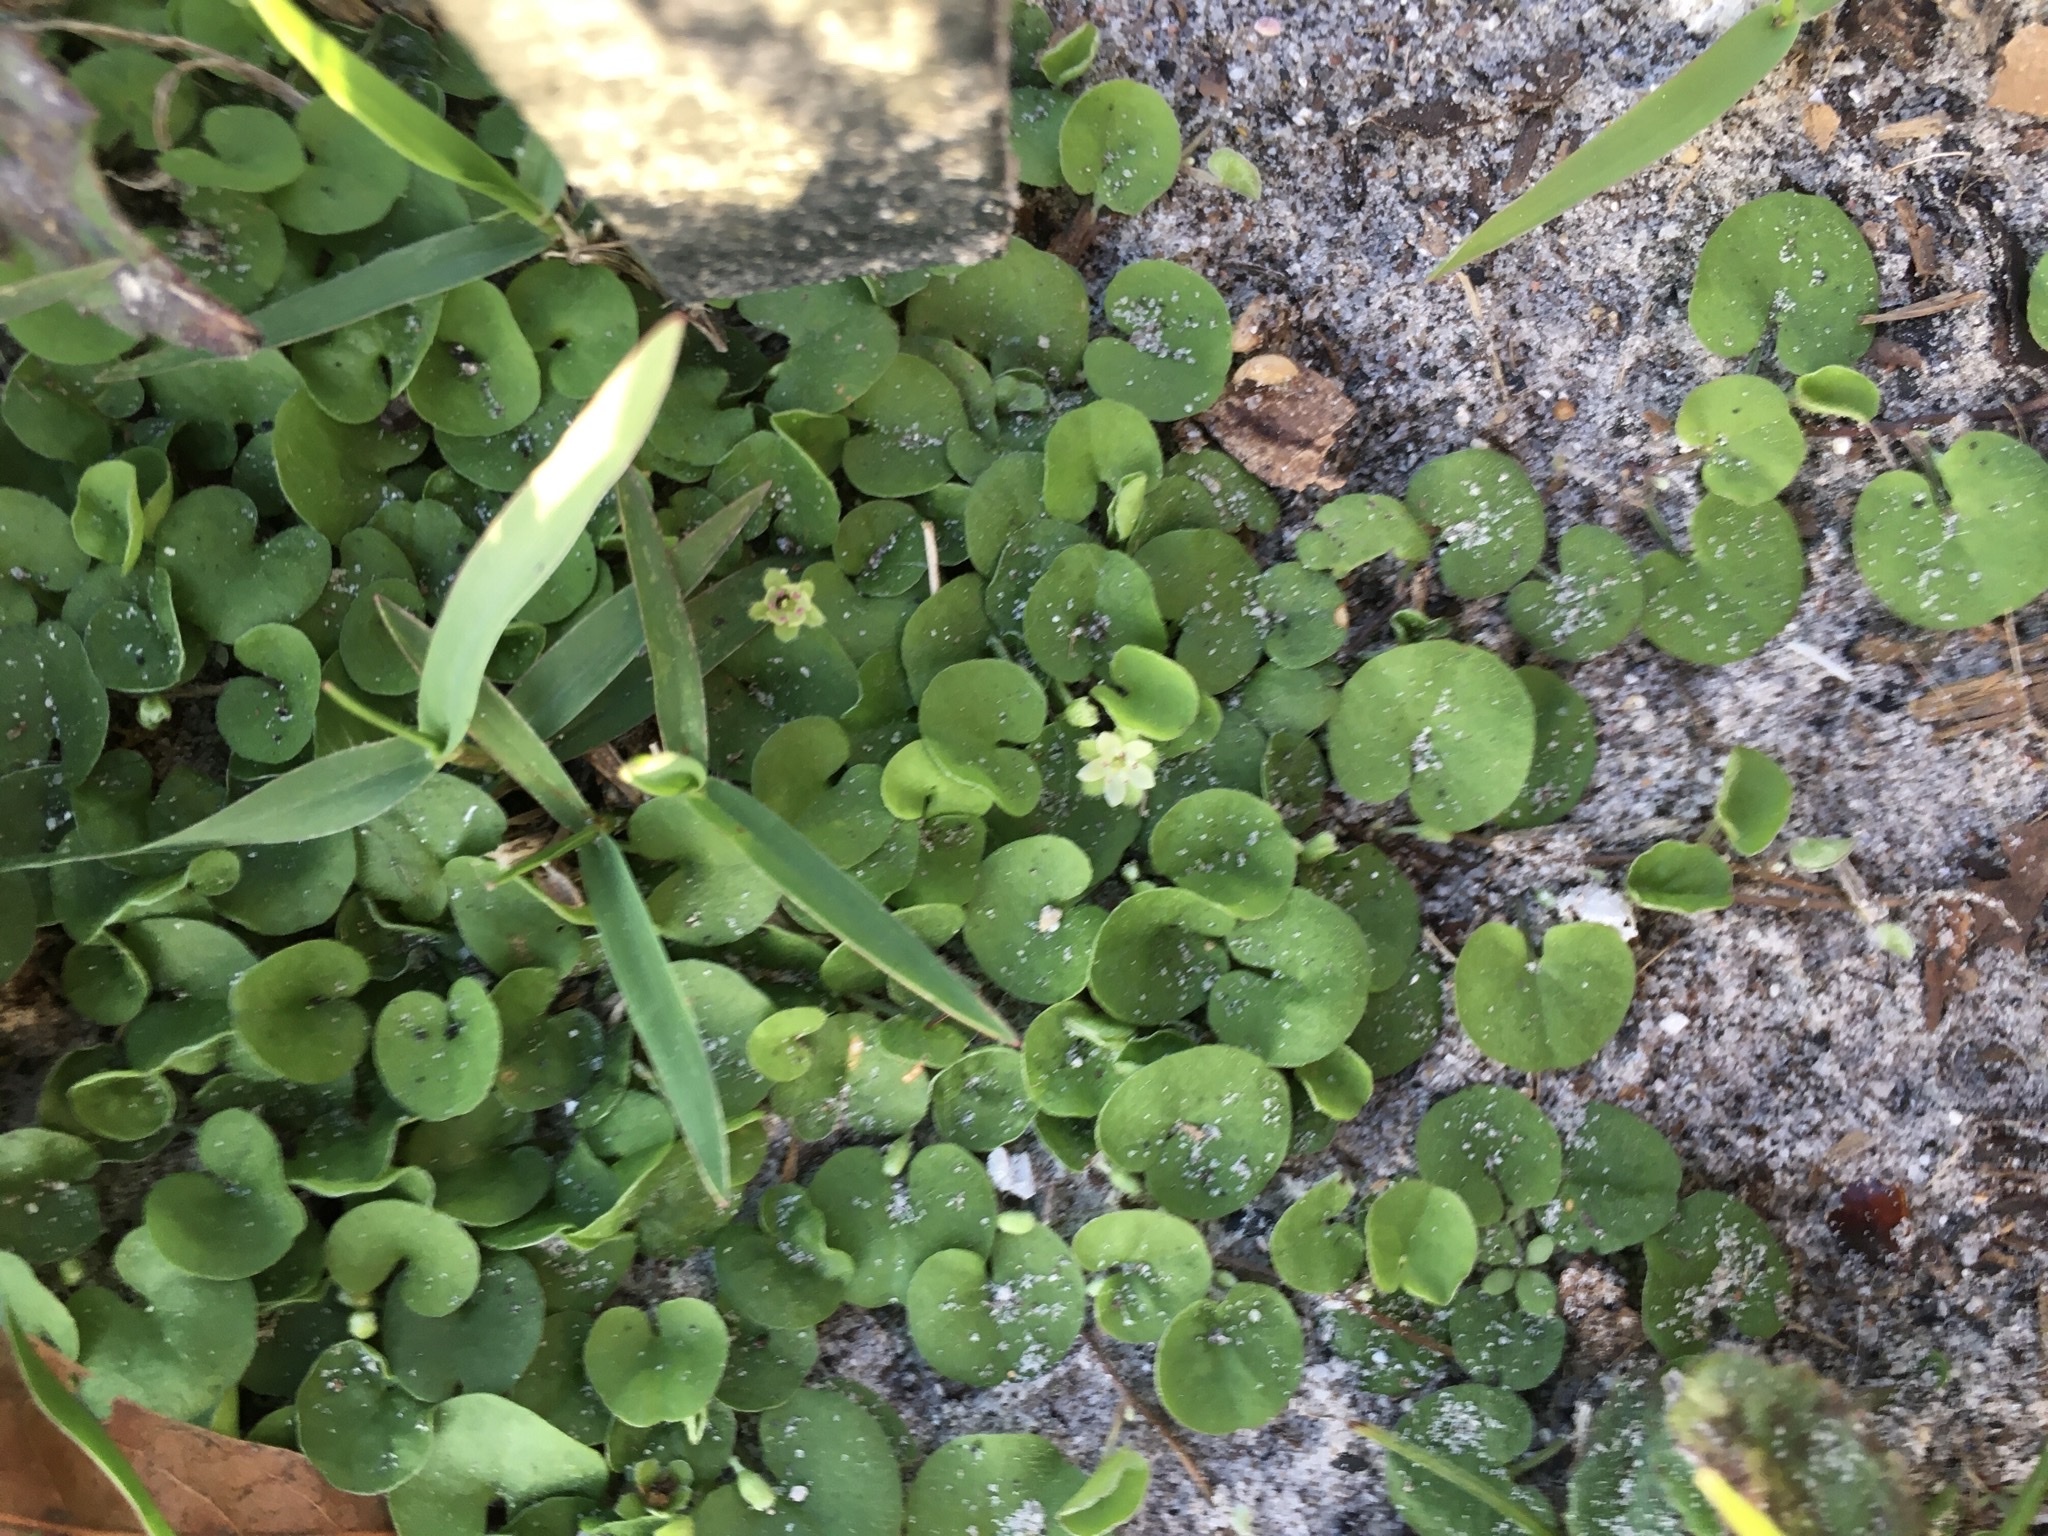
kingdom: Plantae
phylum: Tracheophyta
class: Magnoliopsida
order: Solanales
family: Convolvulaceae
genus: Dichondra
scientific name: Dichondra carolinensis
